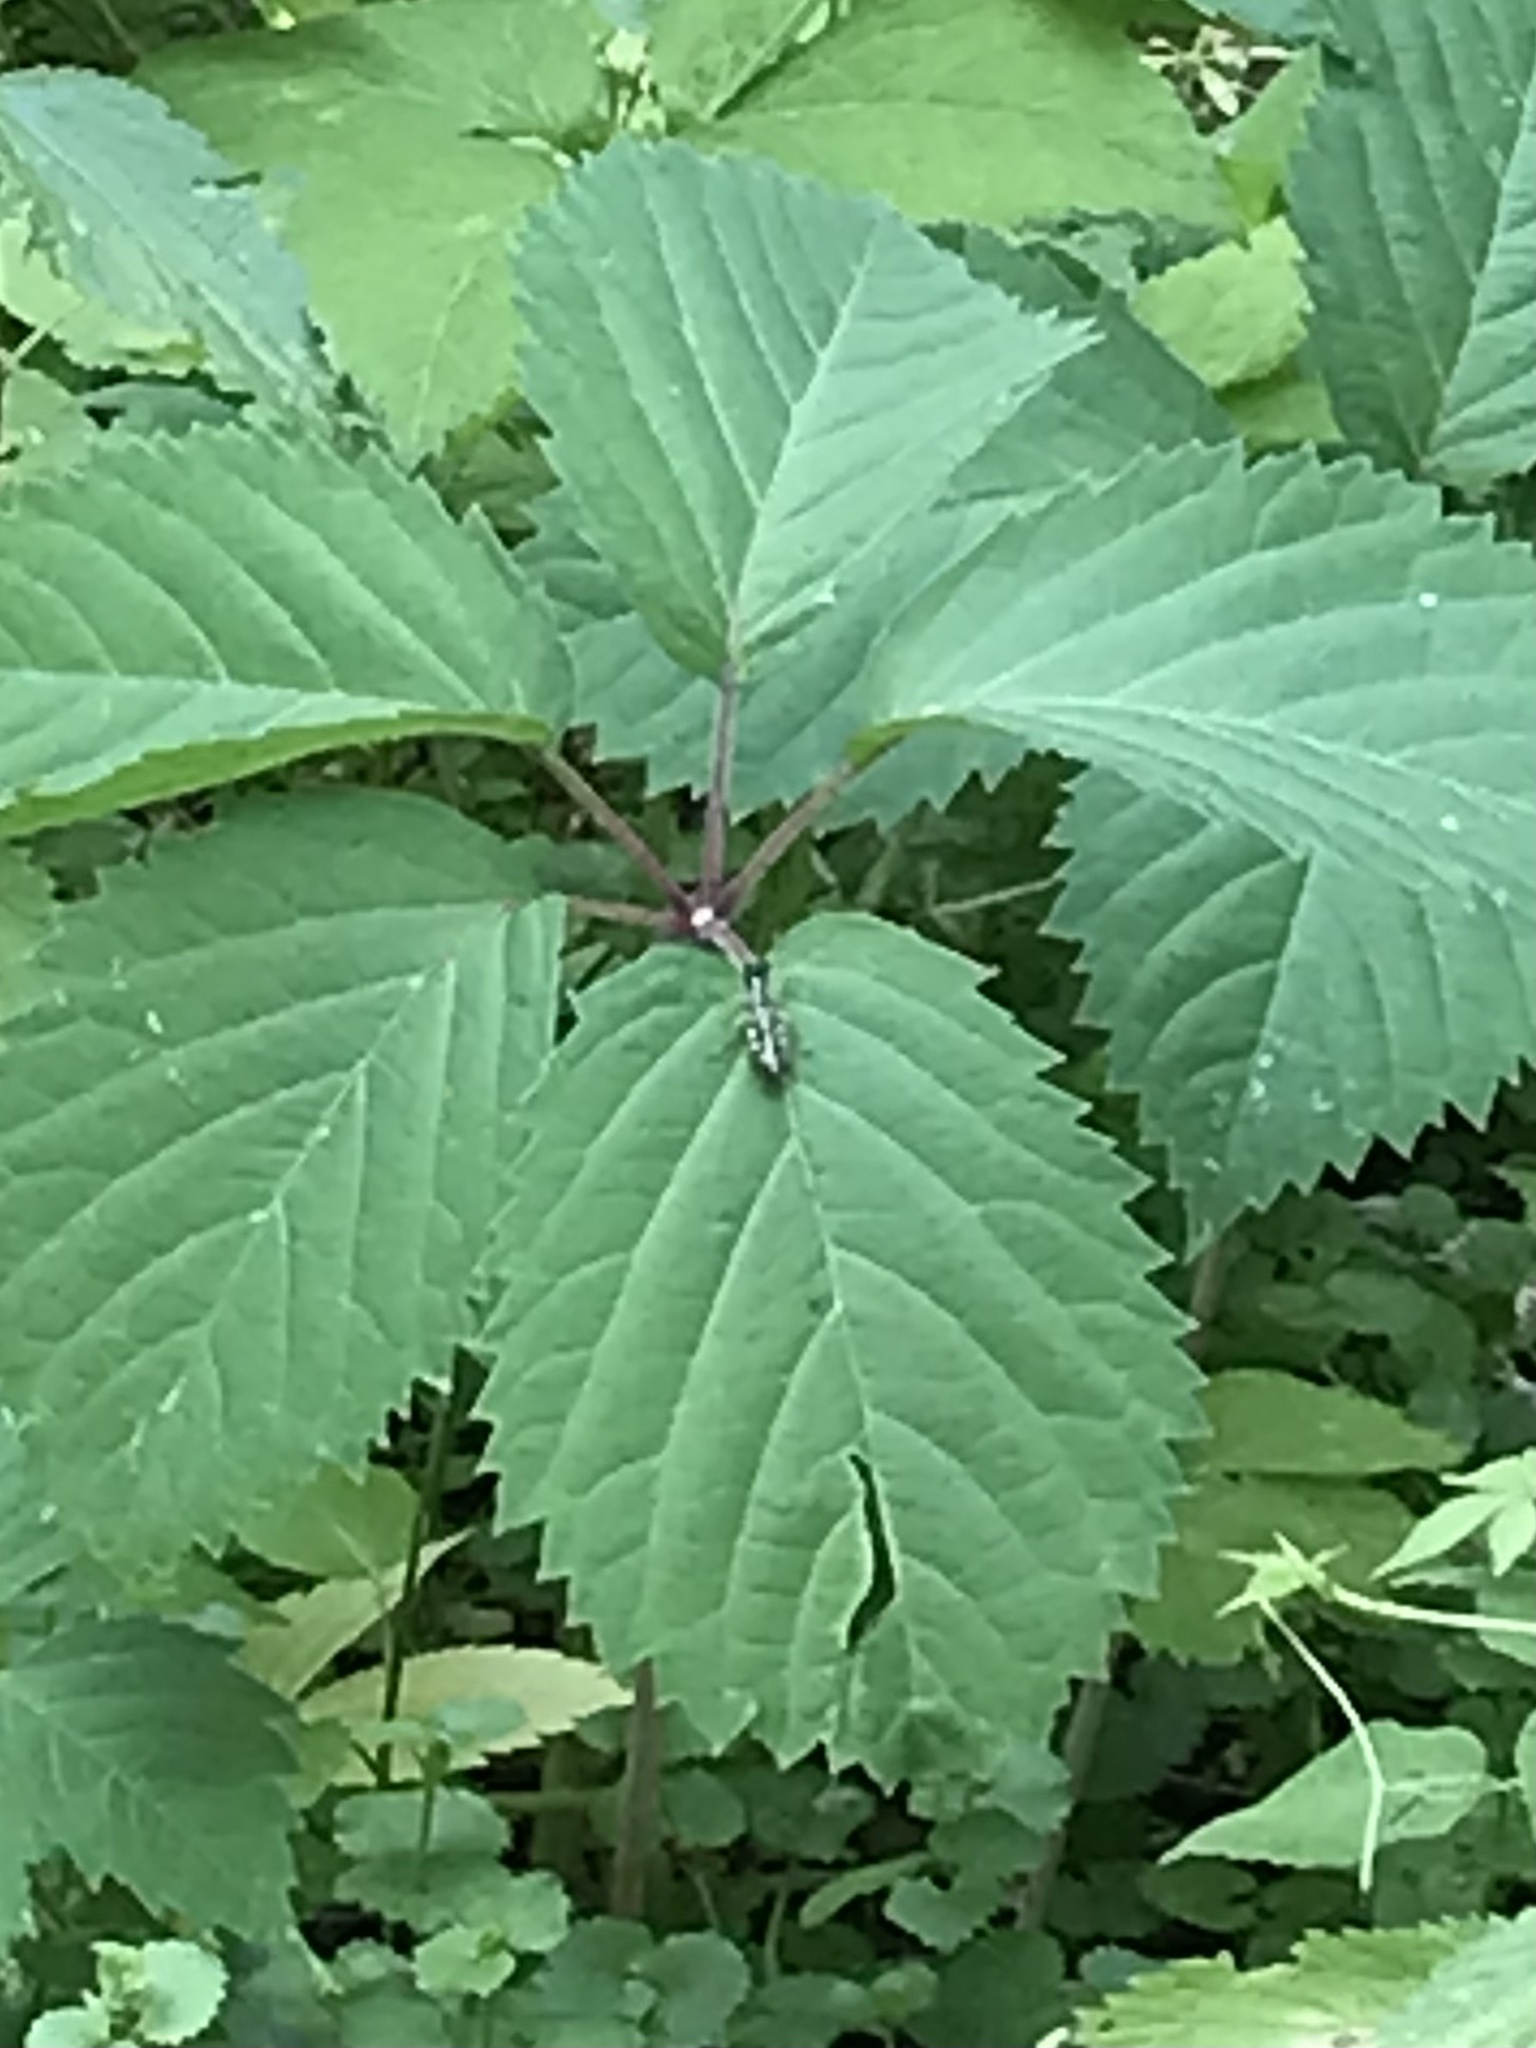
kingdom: Animalia
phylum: Arthropoda
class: Insecta
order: Orthoptera
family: Acrididae
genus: Melanoplus
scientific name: Melanoplus viridipes
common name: Green-legged locust
